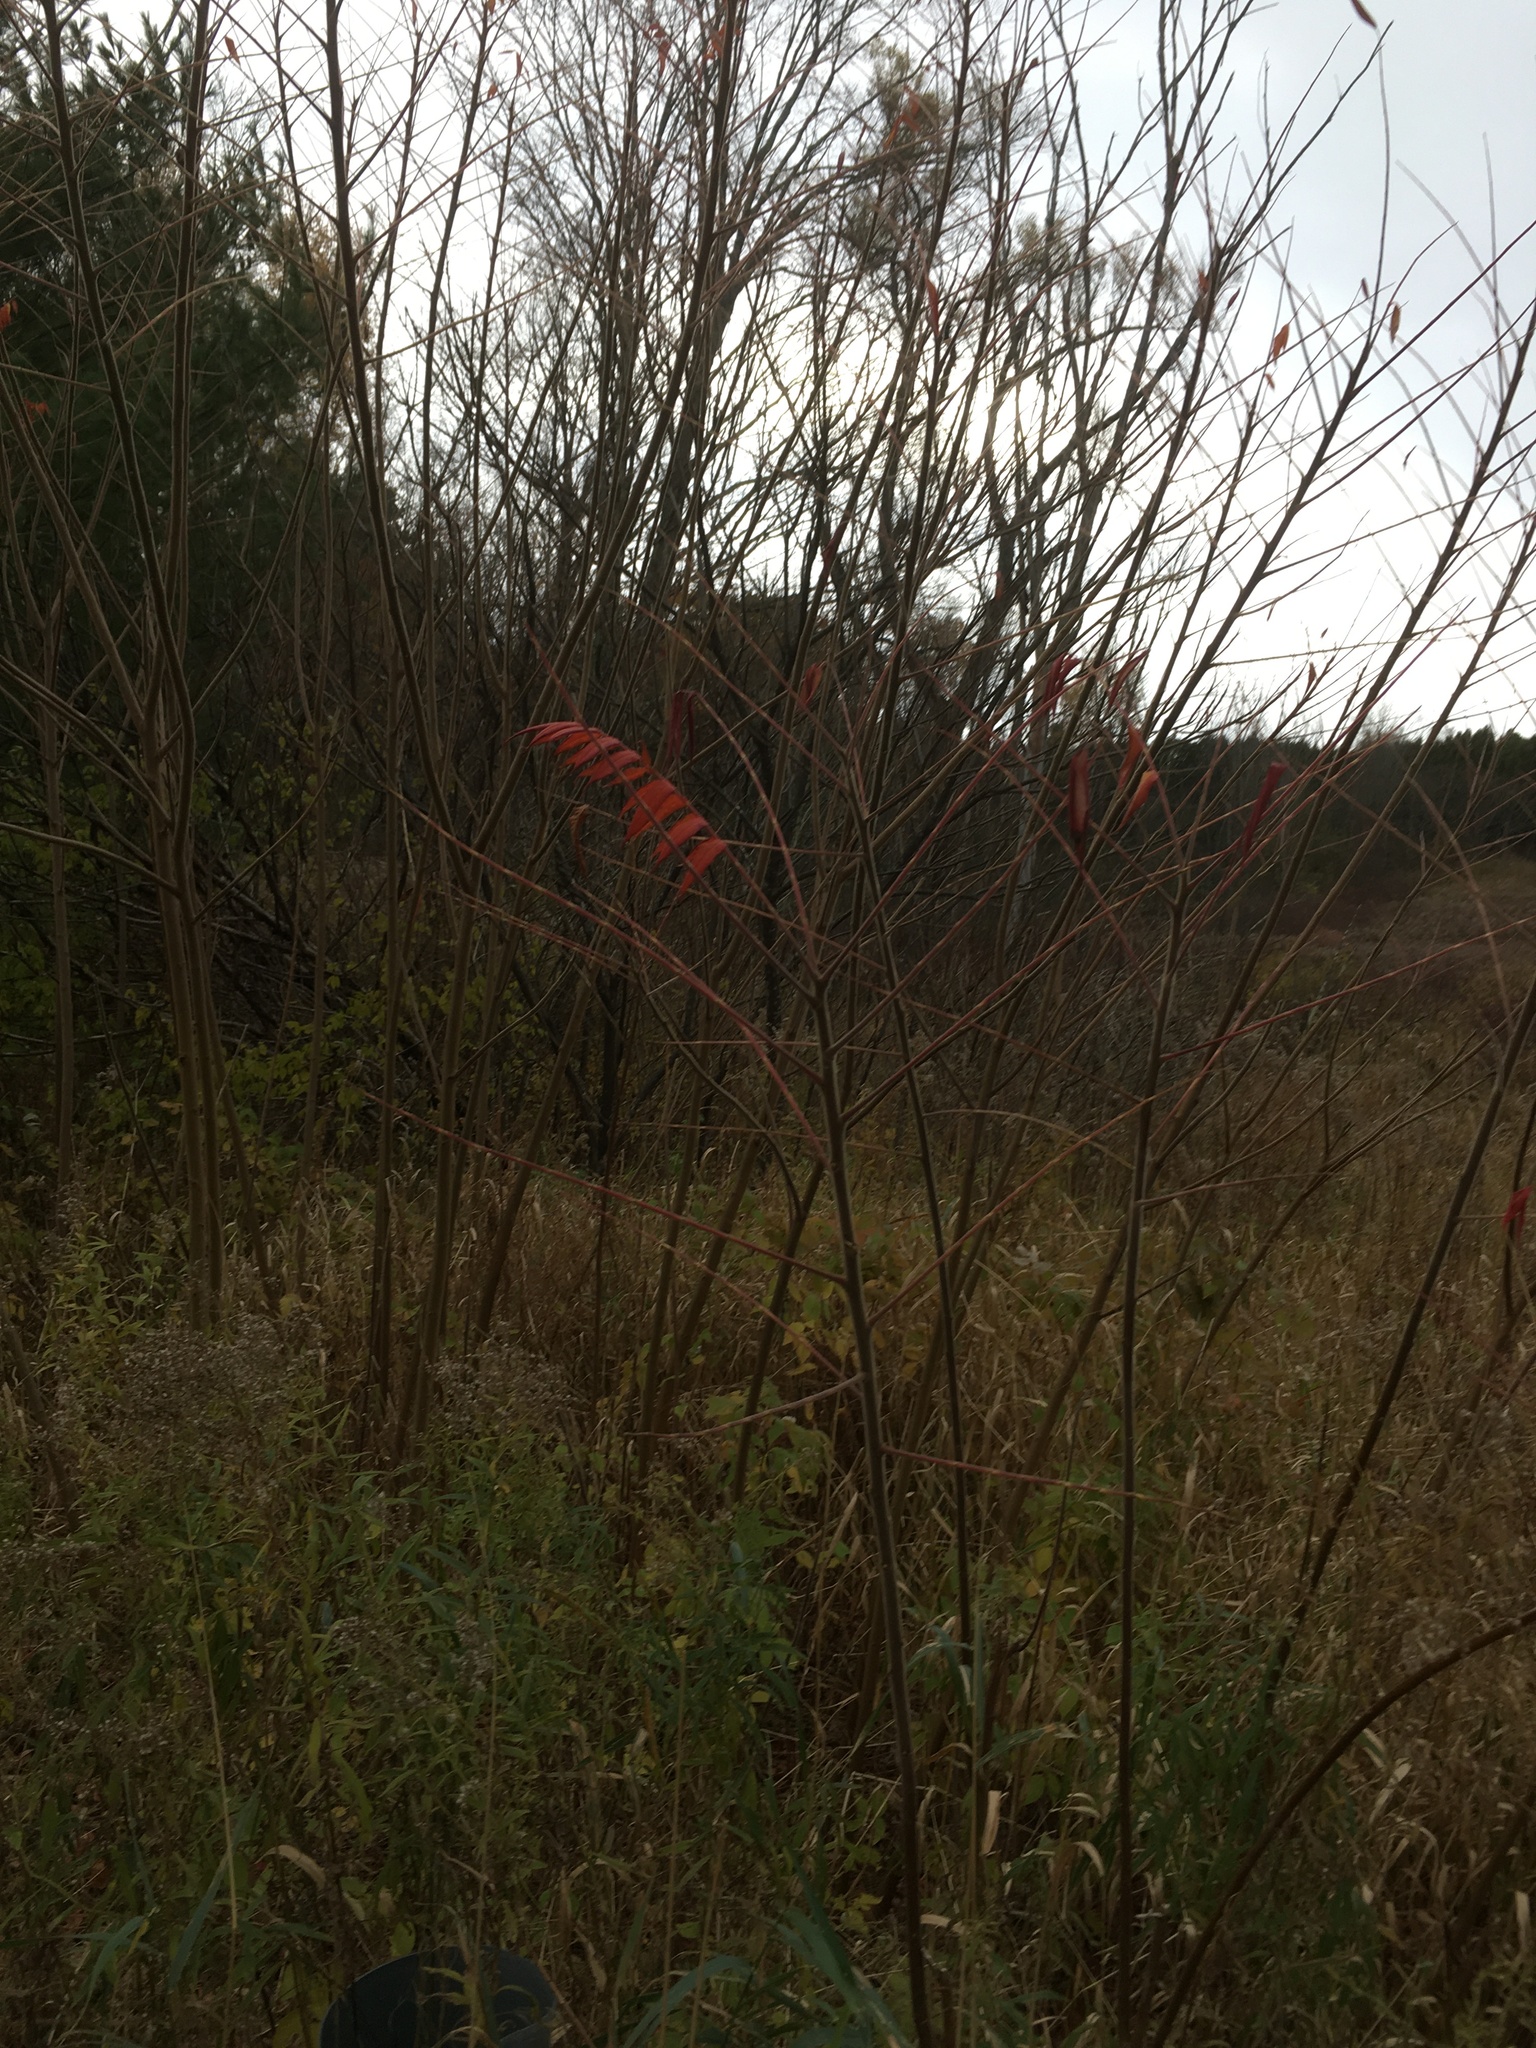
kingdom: Plantae
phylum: Tracheophyta
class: Magnoliopsida
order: Sapindales
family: Anacardiaceae
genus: Rhus
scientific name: Rhus typhina
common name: Staghorn sumac
